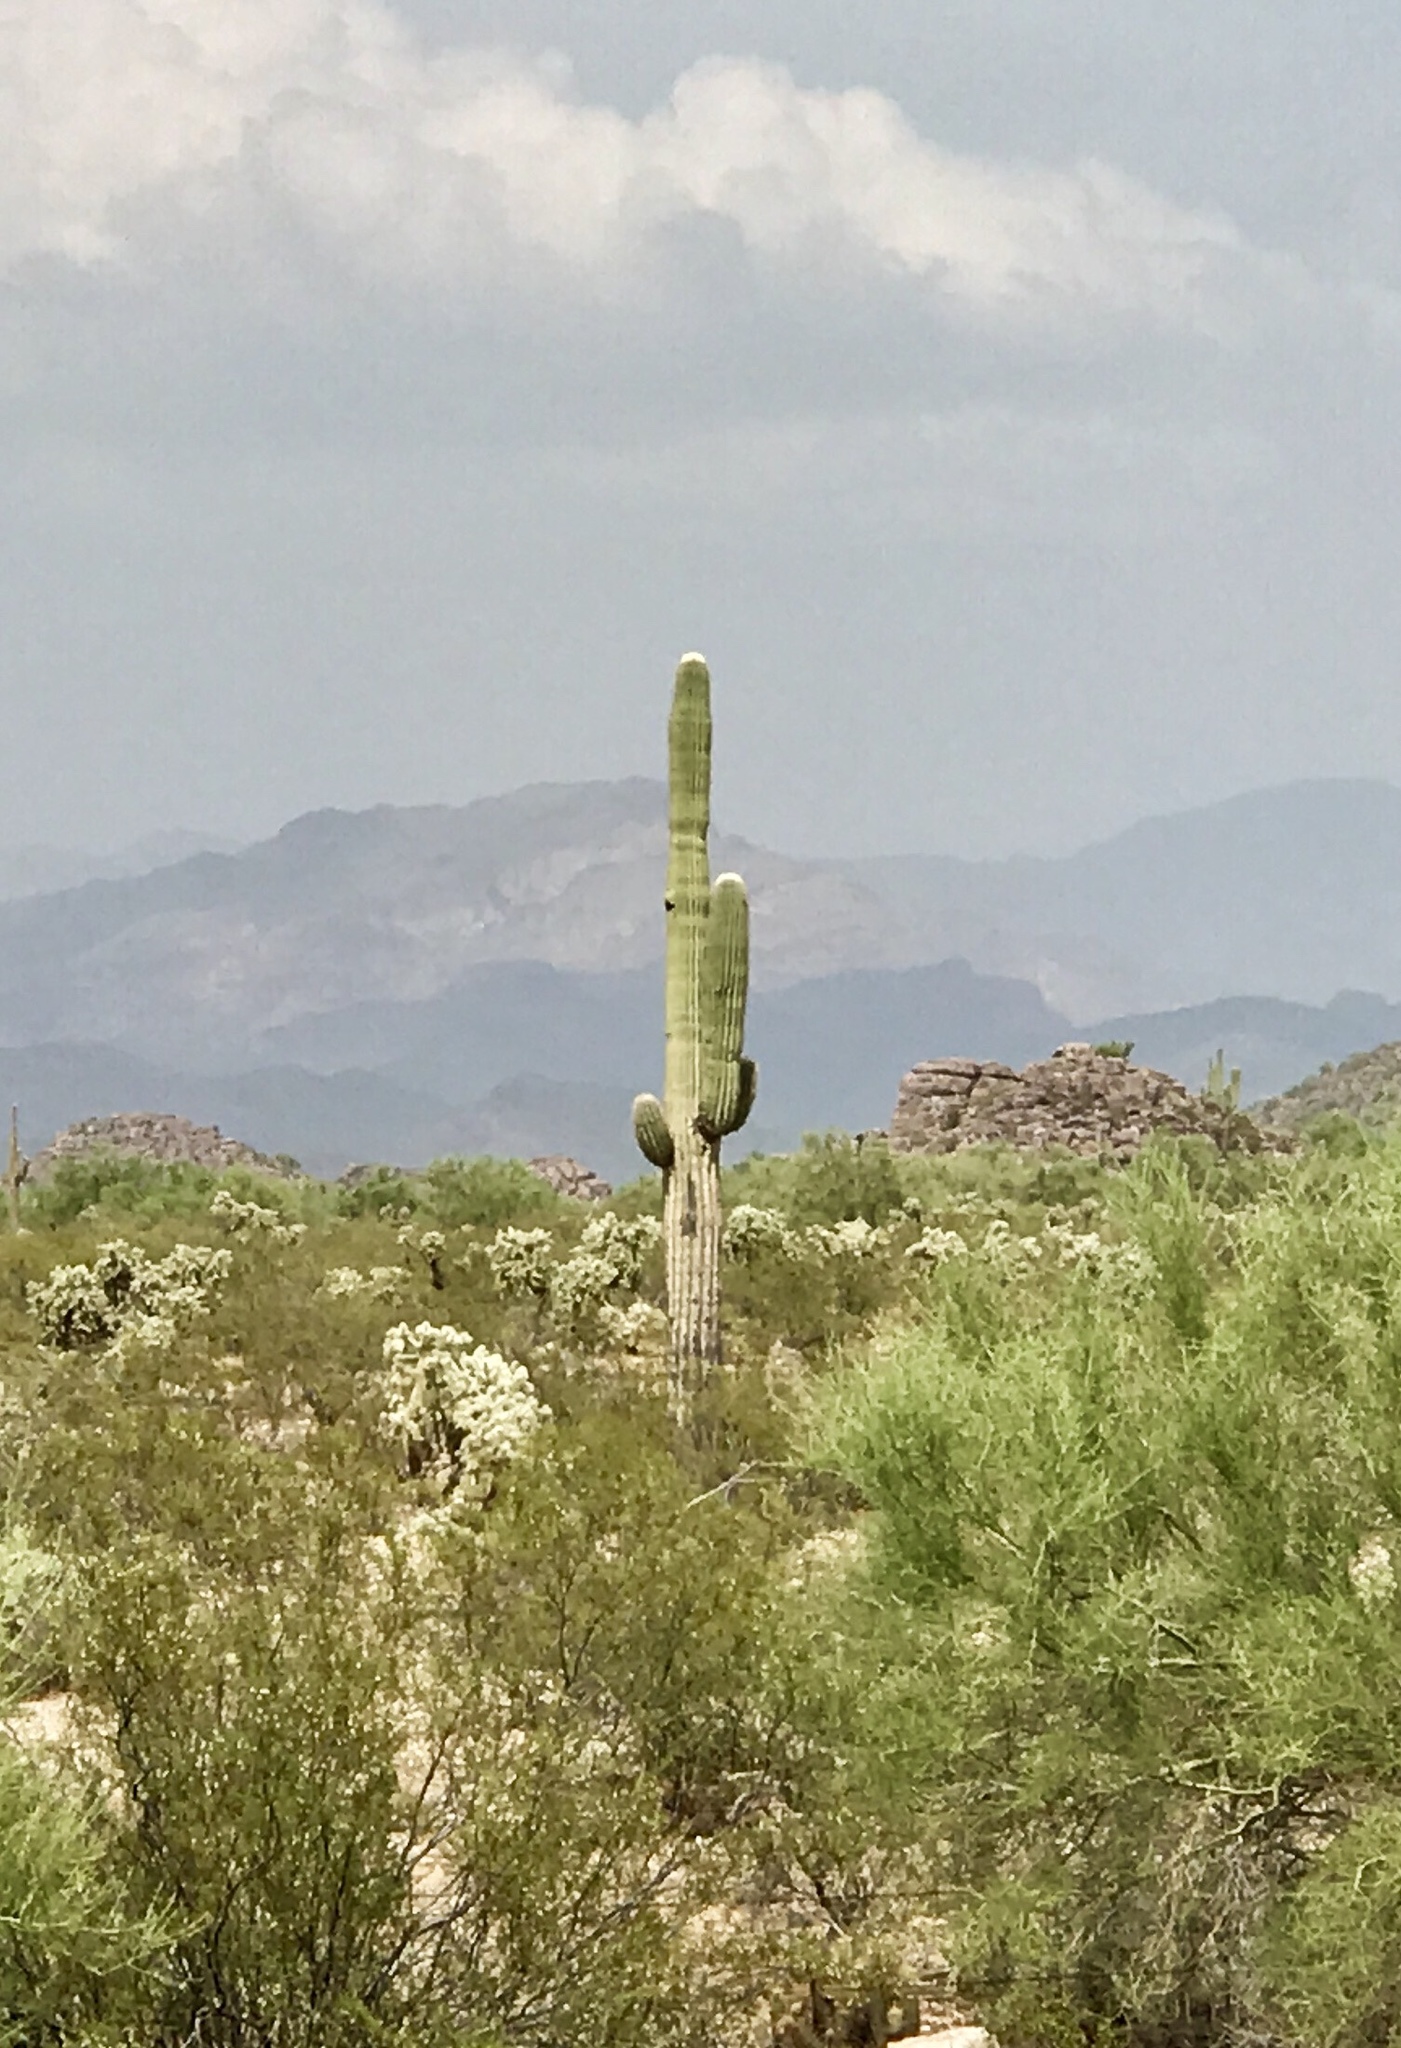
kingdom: Plantae
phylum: Tracheophyta
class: Magnoliopsida
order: Caryophyllales
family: Cactaceae
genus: Carnegiea
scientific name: Carnegiea gigantea
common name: Saguaro
